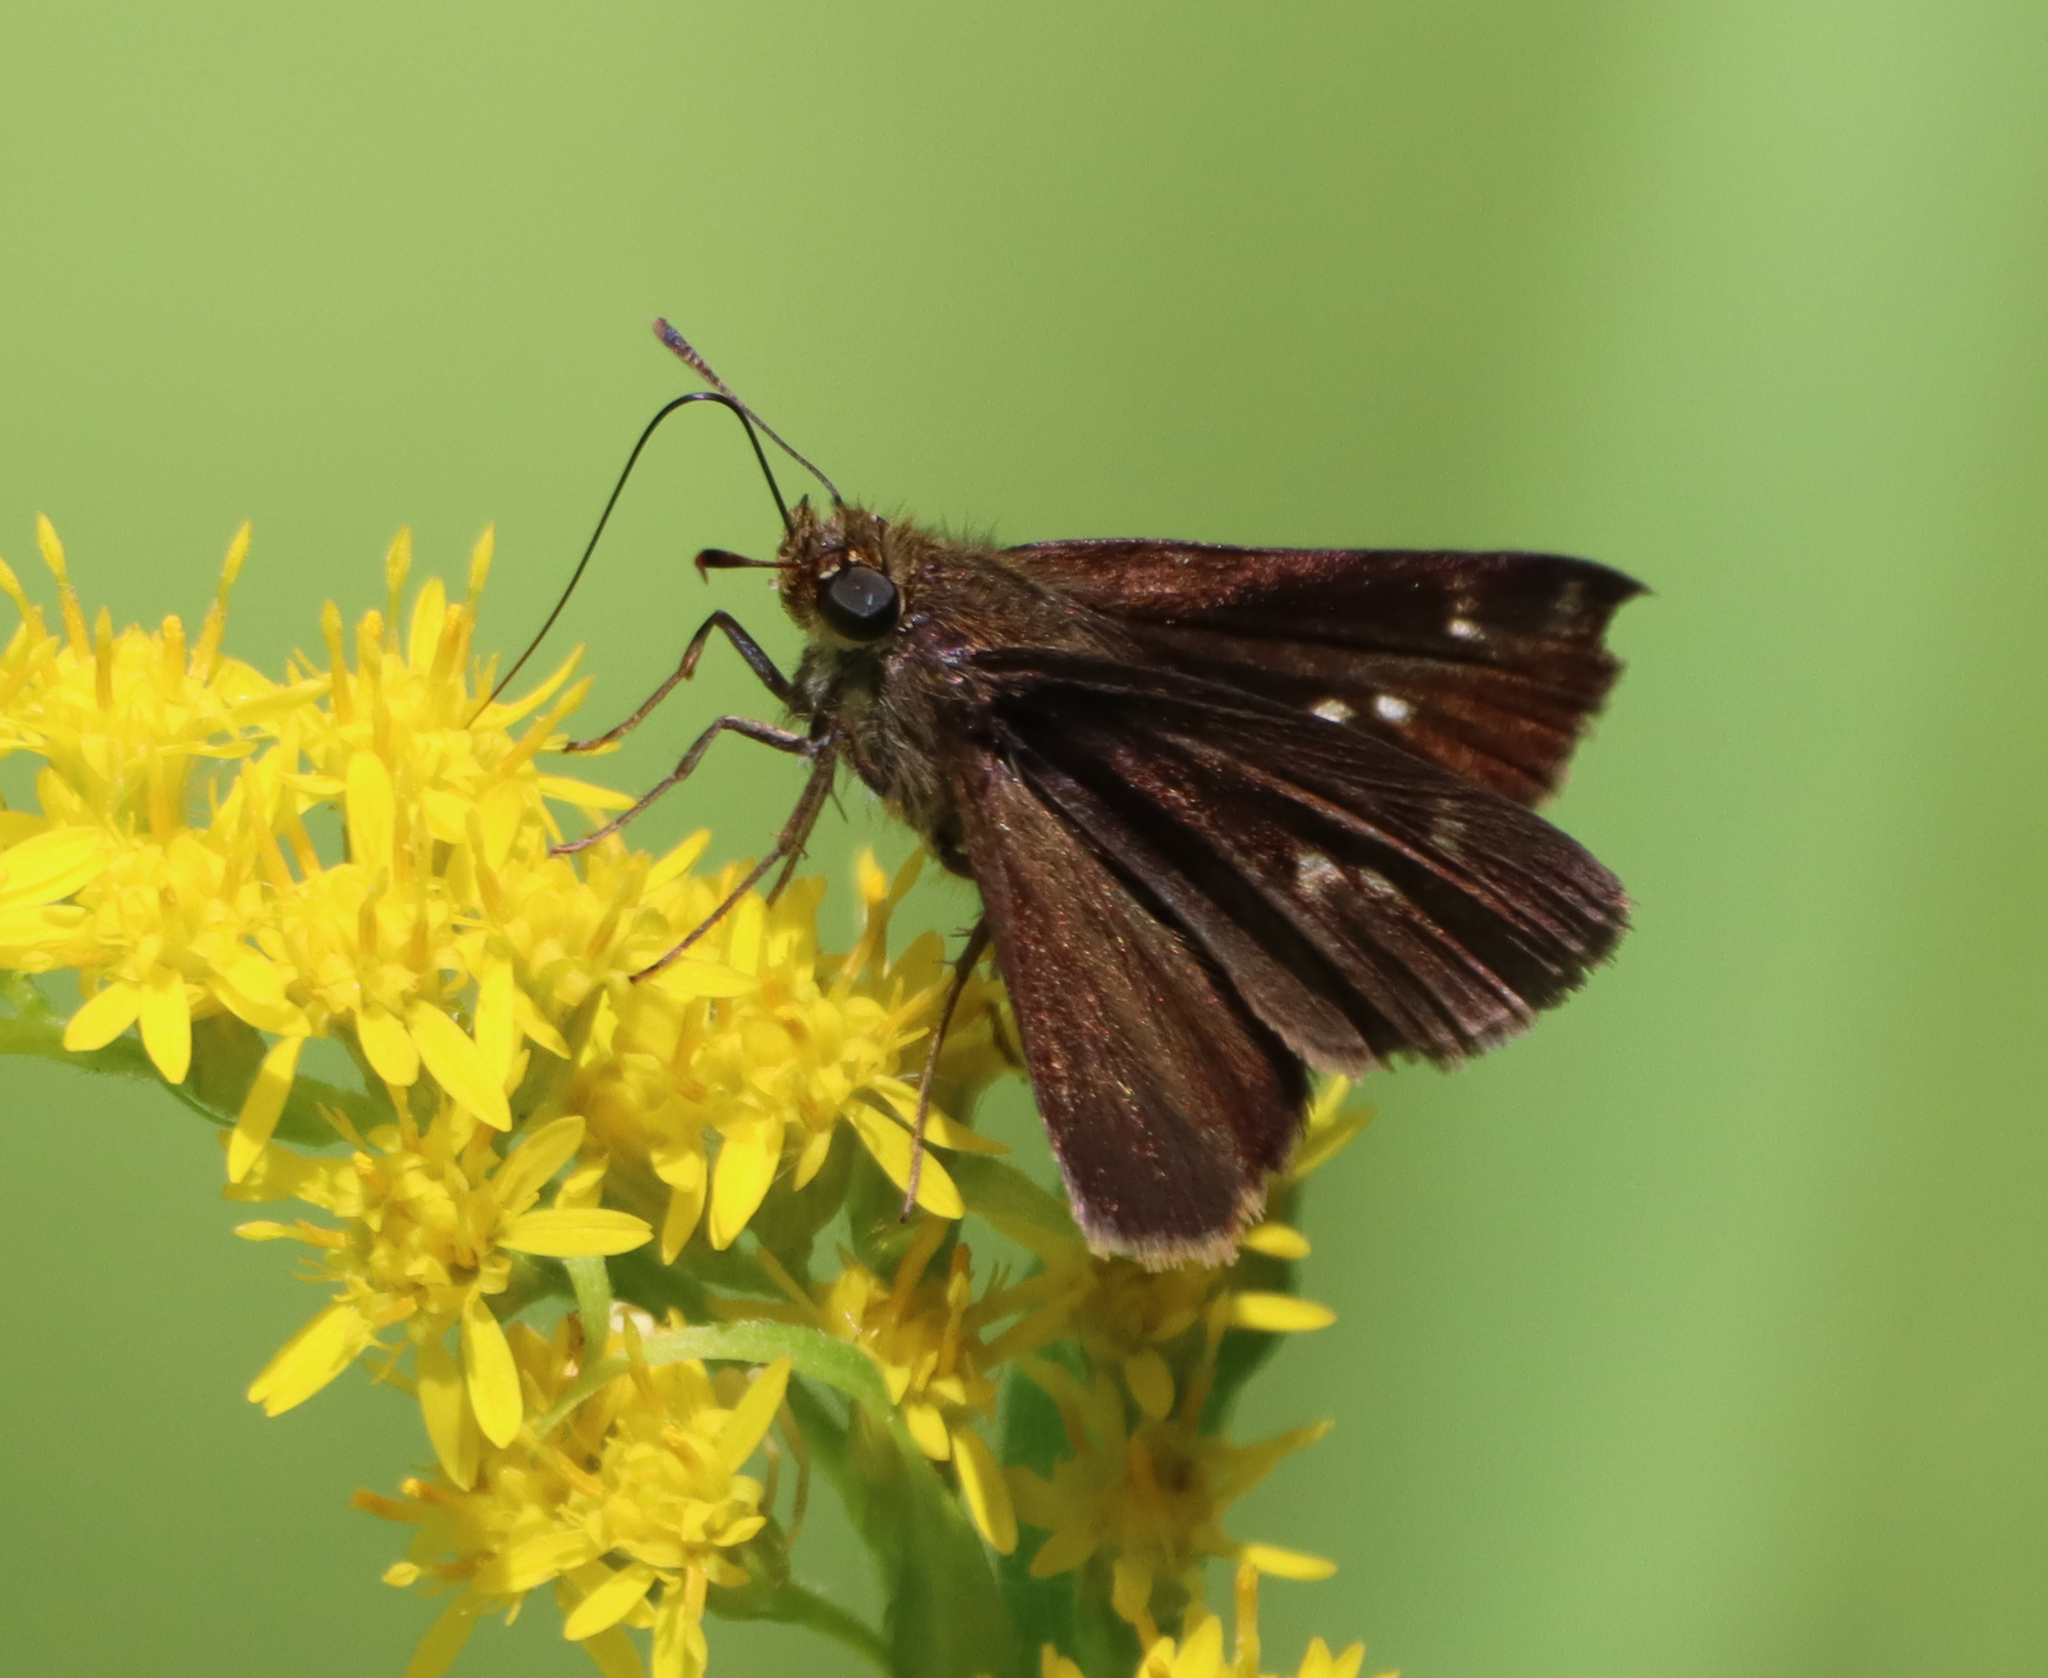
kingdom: Animalia
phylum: Arthropoda
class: Insecta
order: Lepidoptera
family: Hesperiidae
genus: Euphyes
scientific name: Euphyes vestris
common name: Dun skipper
